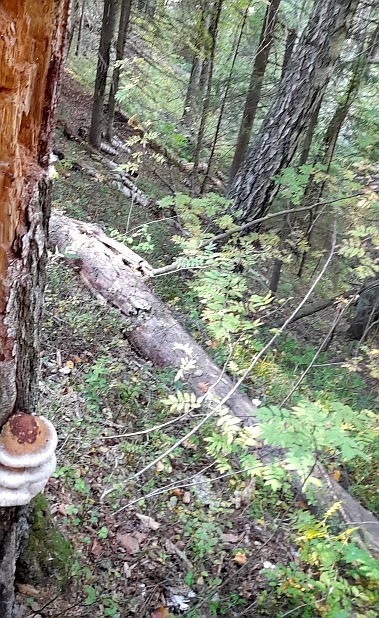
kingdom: Plantae
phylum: Tracheophyta
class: Magnoliopsida
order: Rosales
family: Rosaceae
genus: Sorbus
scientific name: Sorbus aucuparia
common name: Rowan
